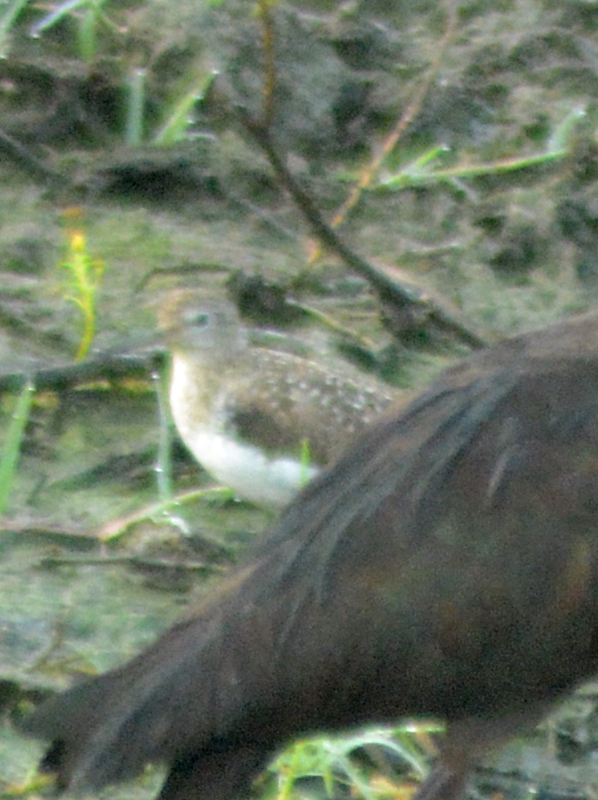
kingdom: Animalia
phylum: Chordata
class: Aves
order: Charadriiformes
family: Scolopacidae
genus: Tringa
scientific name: Tringa solitaria
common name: Solitary sandpiper
